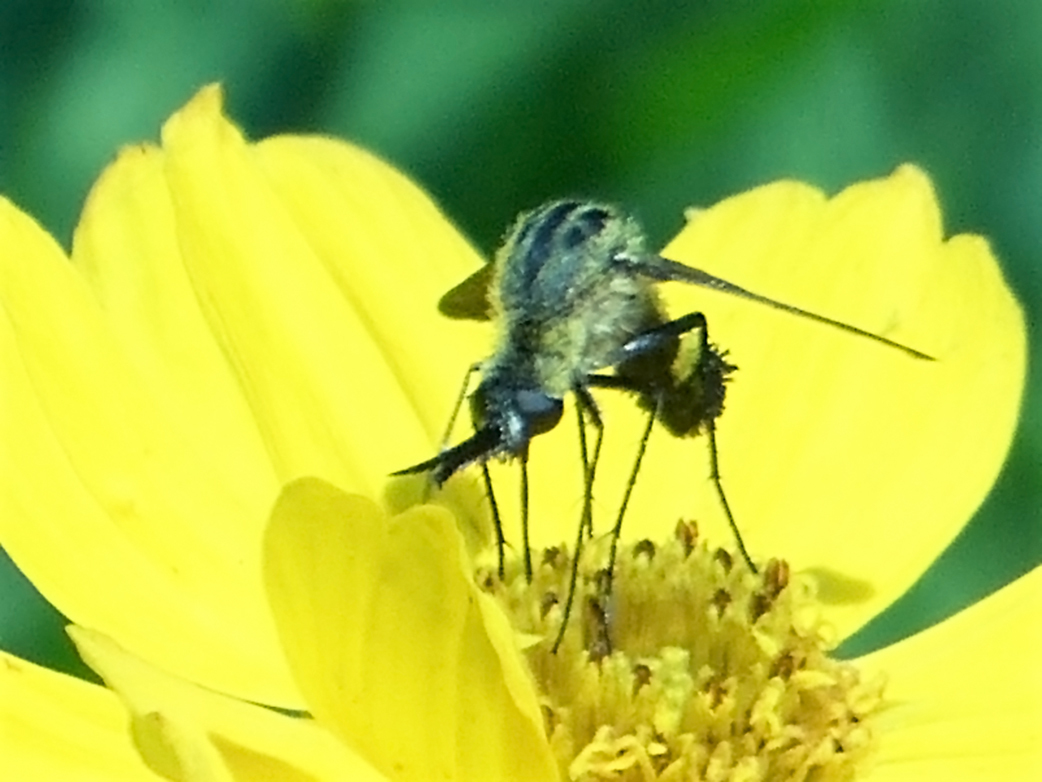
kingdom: Animalia
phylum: Arthropoda
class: Insecta
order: Diptera
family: Bombyliidae
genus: Lepidophora
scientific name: Lepidophora lutea
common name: Hunchback bee fly
